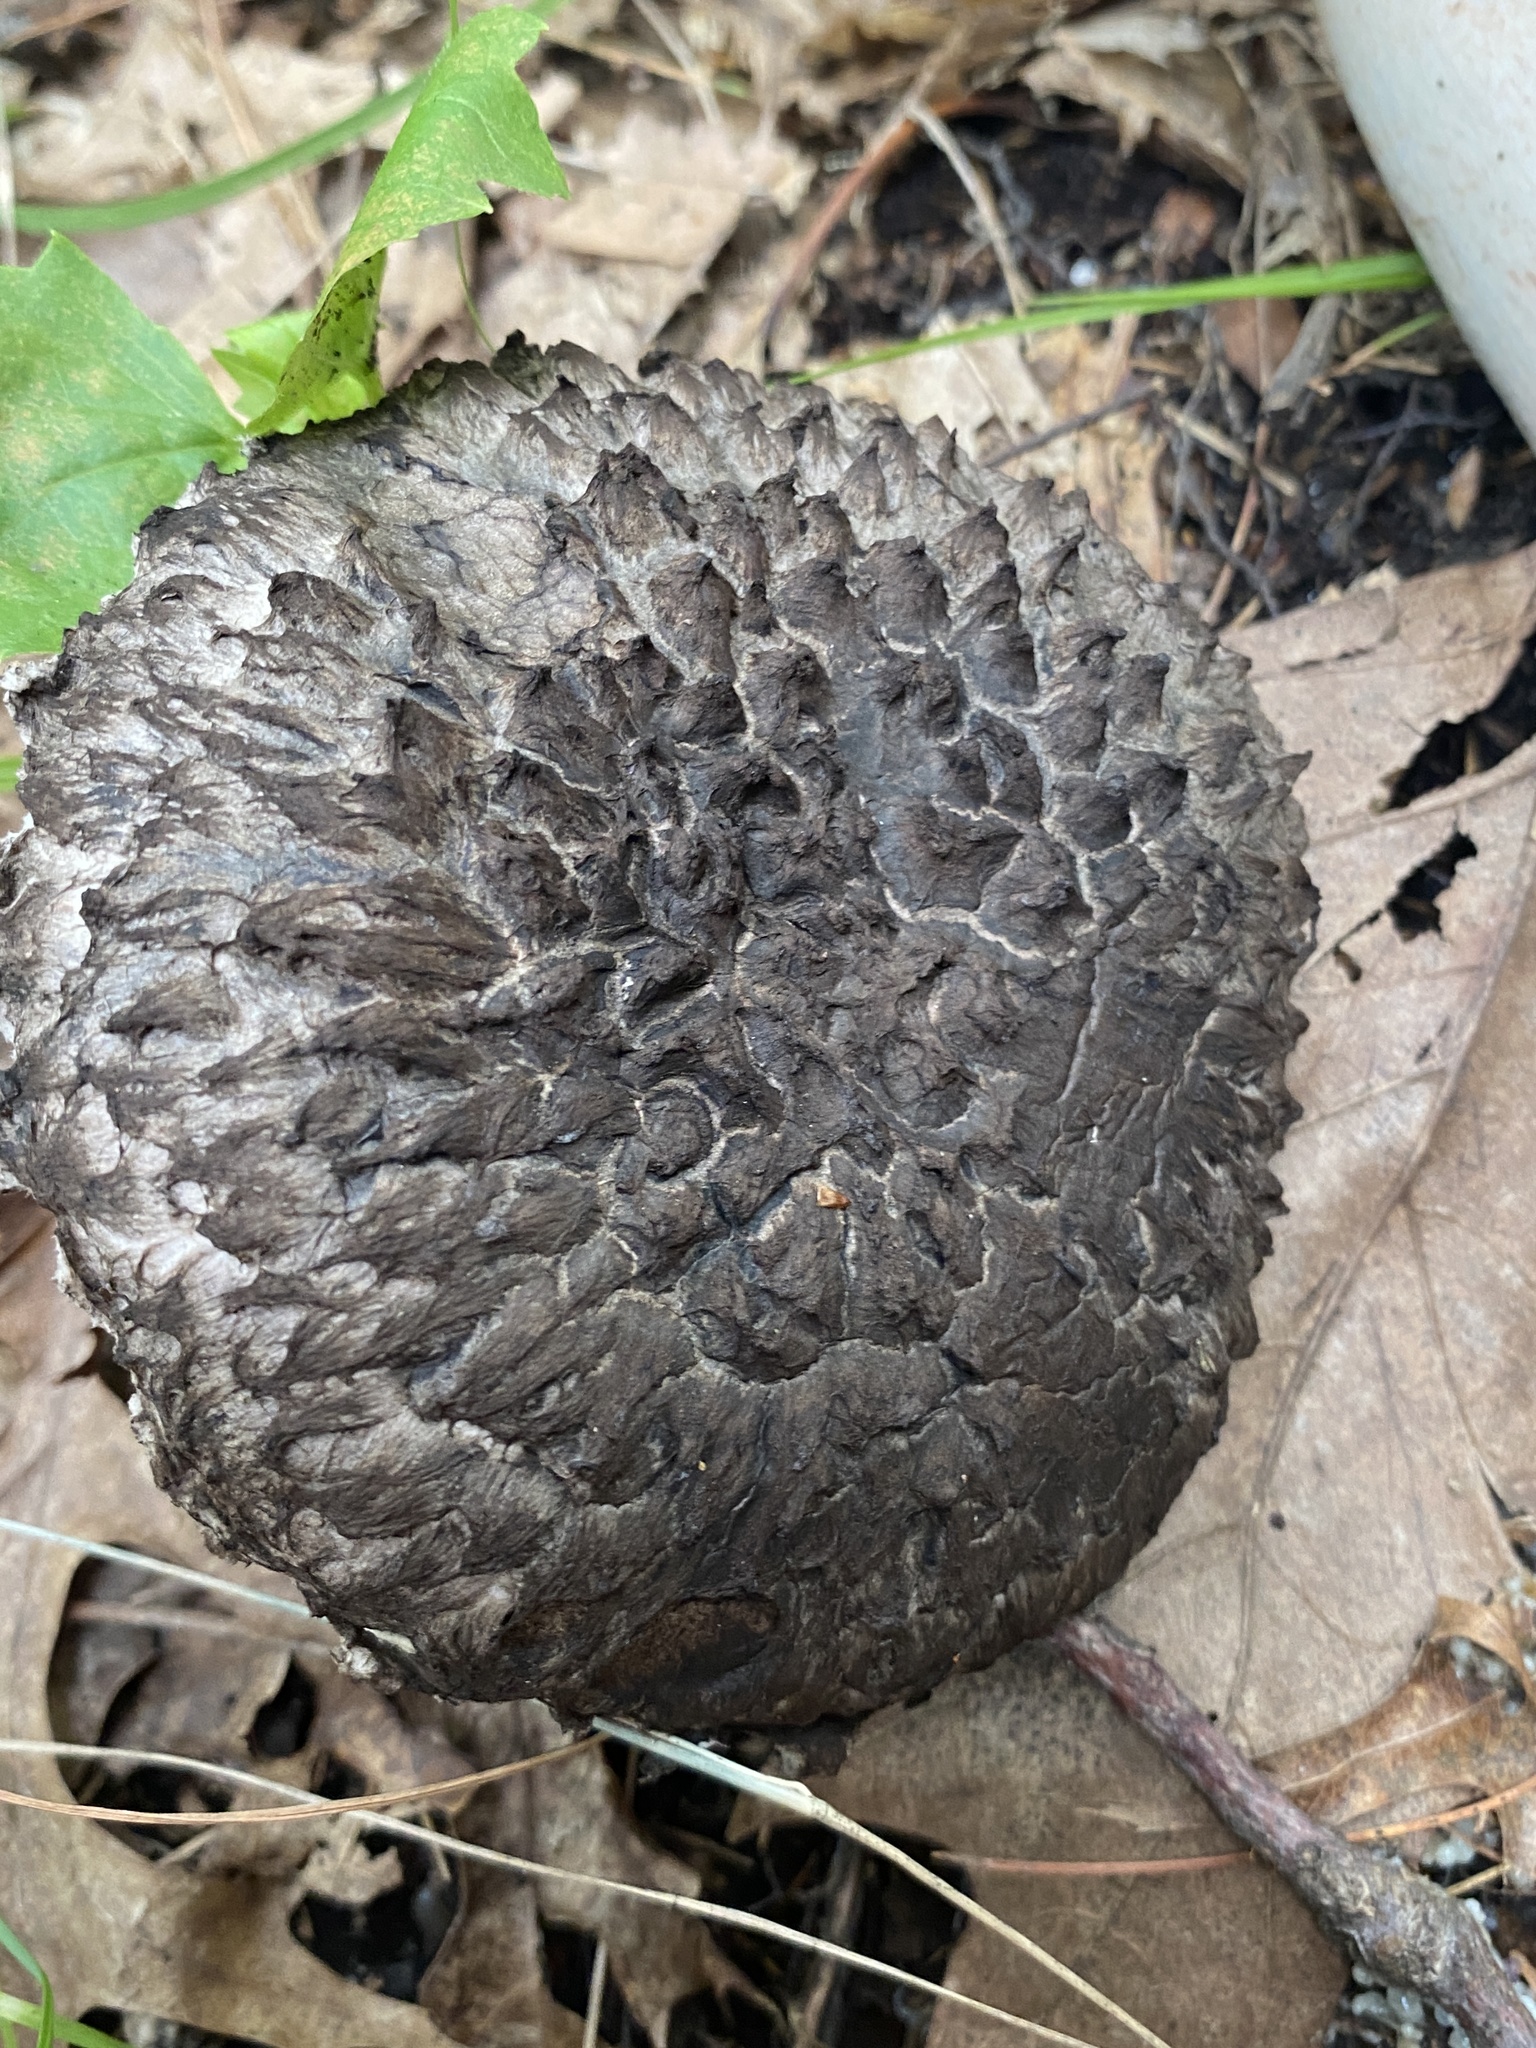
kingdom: Fungi
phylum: Basidiomycota
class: Agaricomycetes
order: Boletales
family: Boletaceae
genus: Strobilomyces
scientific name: Strobilomyces strobilaceus
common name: Old man of the woods
